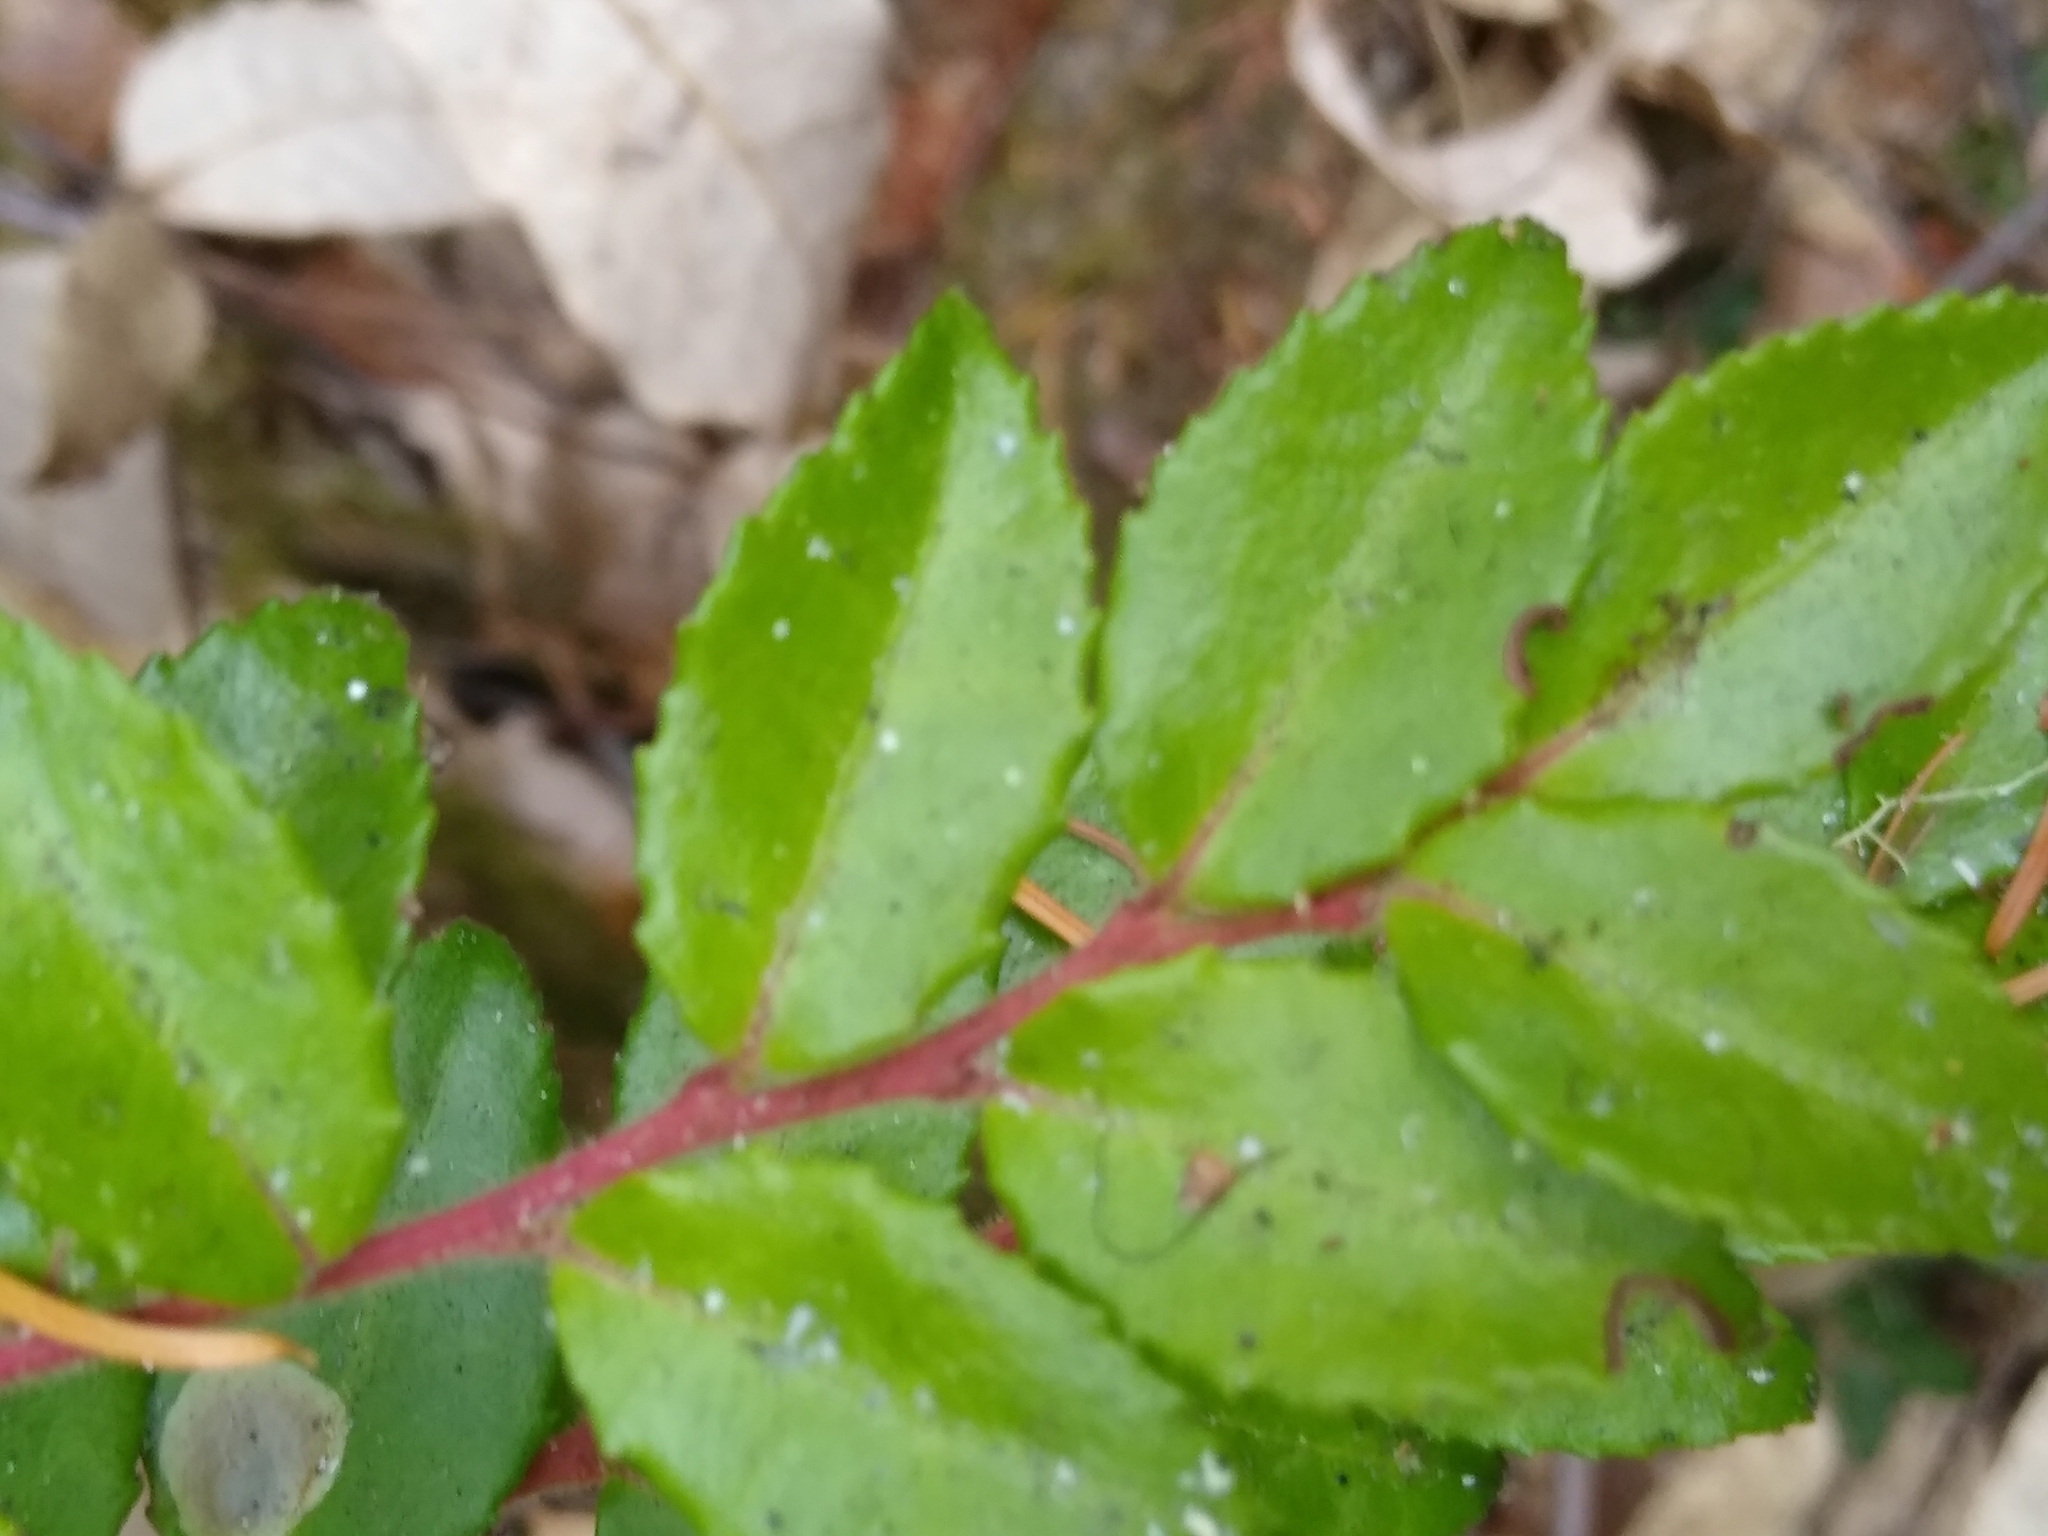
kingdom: Plantae
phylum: Tracheophyta
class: Magnoliopsida
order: Ericales
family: Ericaceae
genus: Vaccinium
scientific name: Vaccinium ovatum
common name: California-huckleberry
